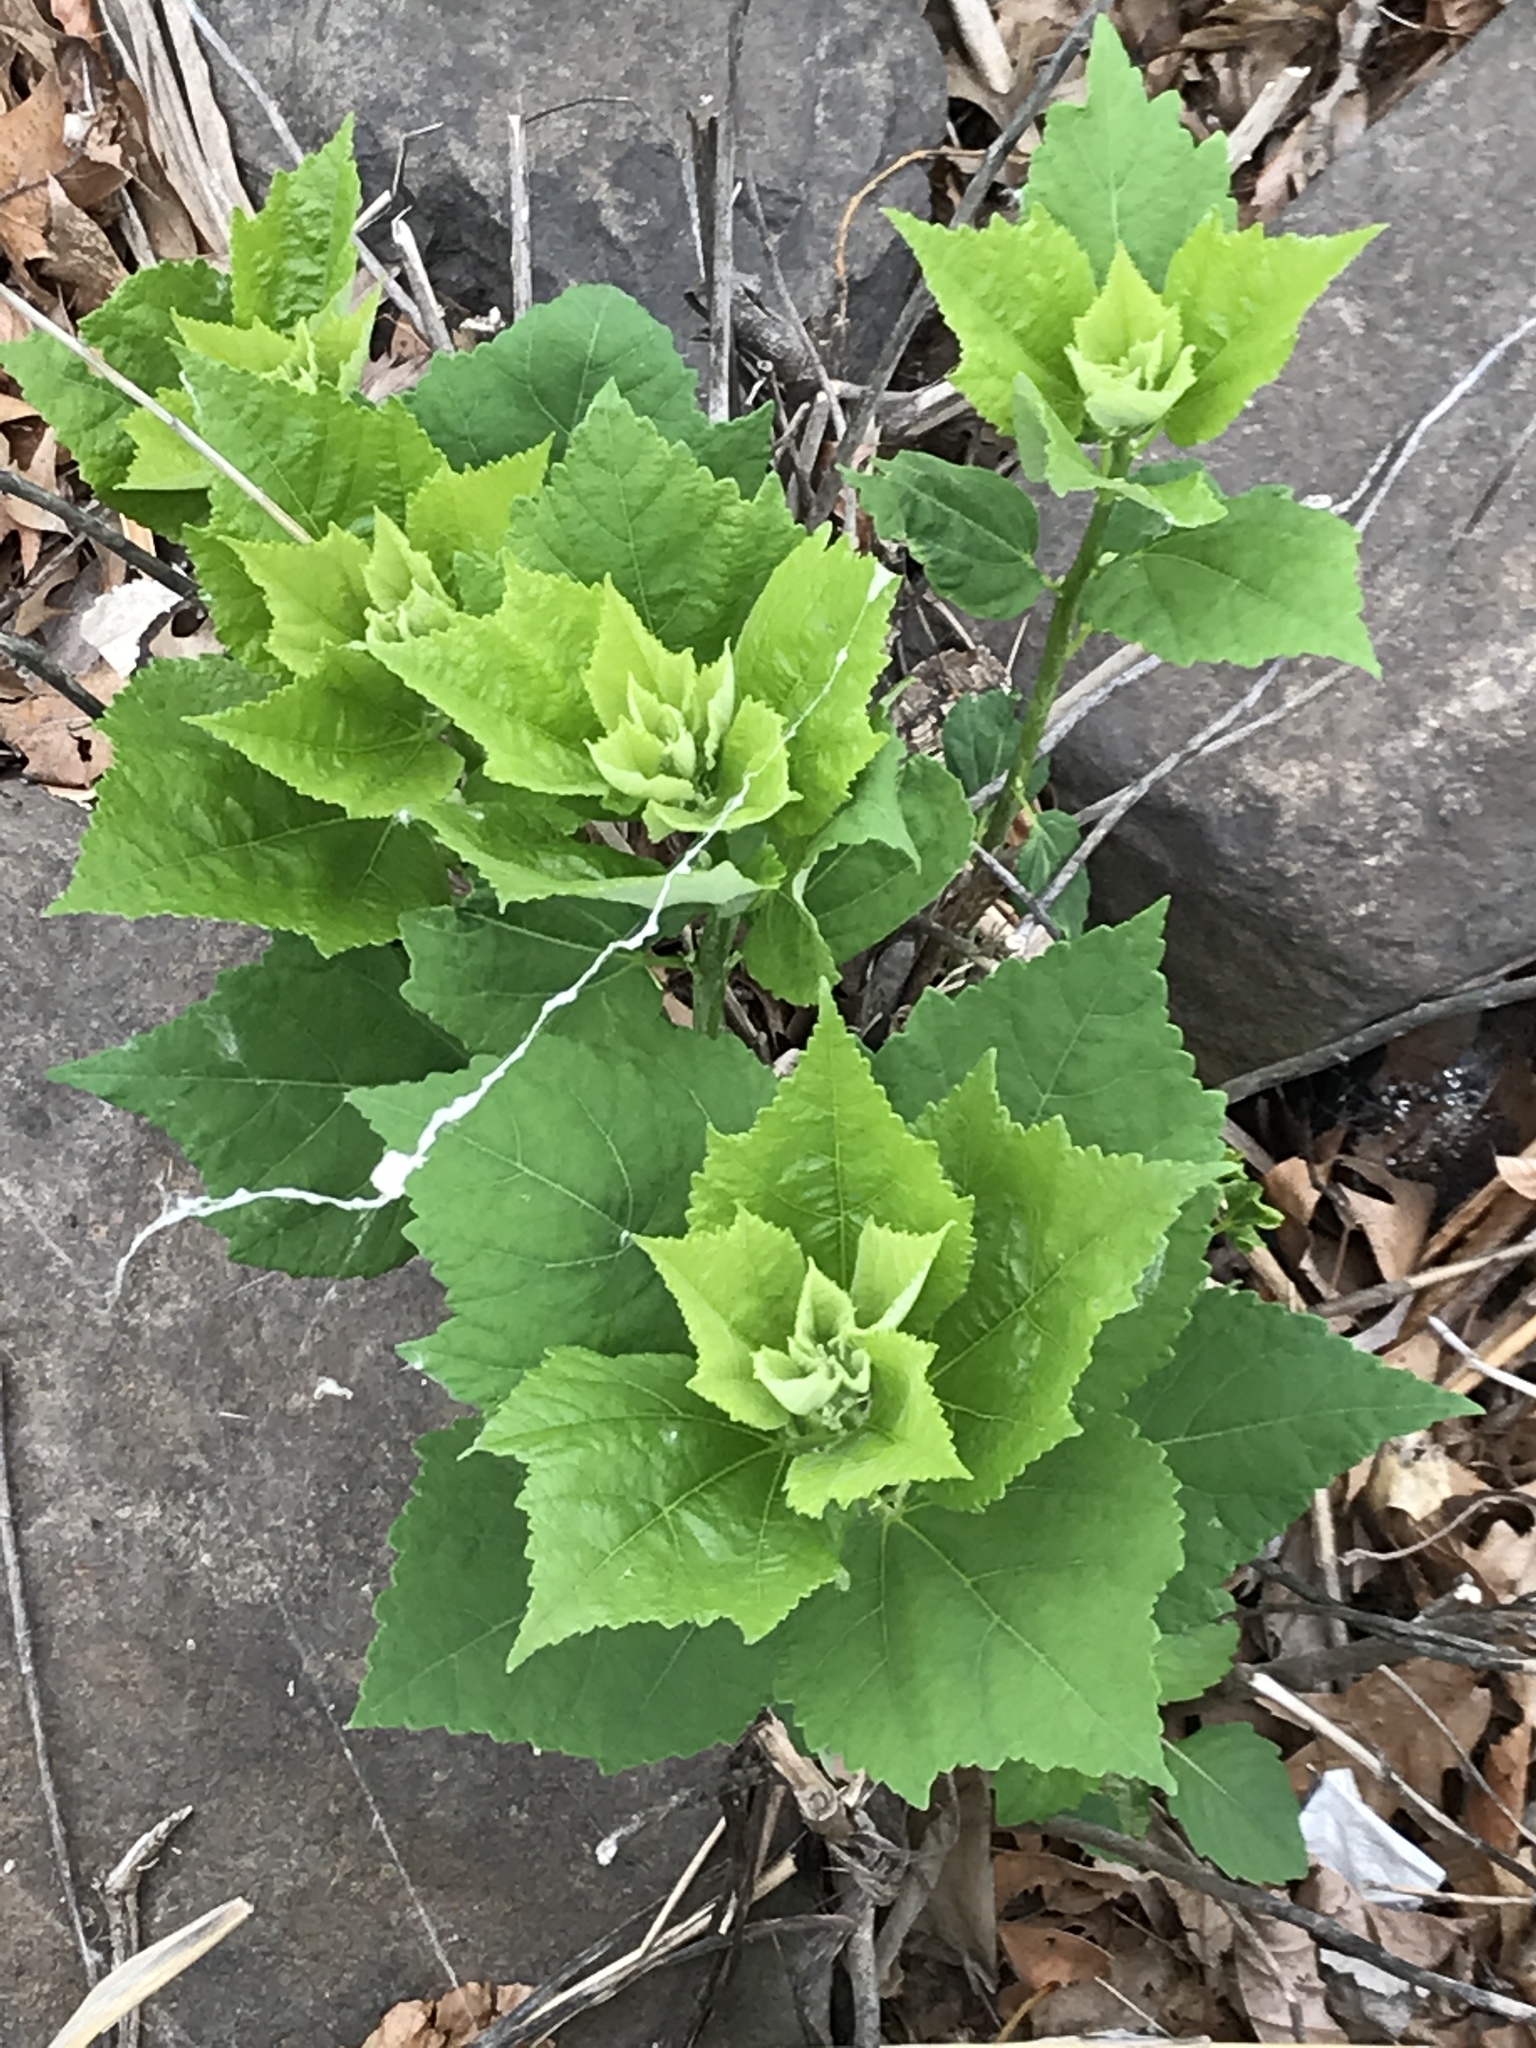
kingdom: Plantae
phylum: Tracheophyta
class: Magnoliopsida
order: Malvales
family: Malvaceae
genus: Hibiscus
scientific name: Hibiscus moscheutos
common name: Common rose-mallow
